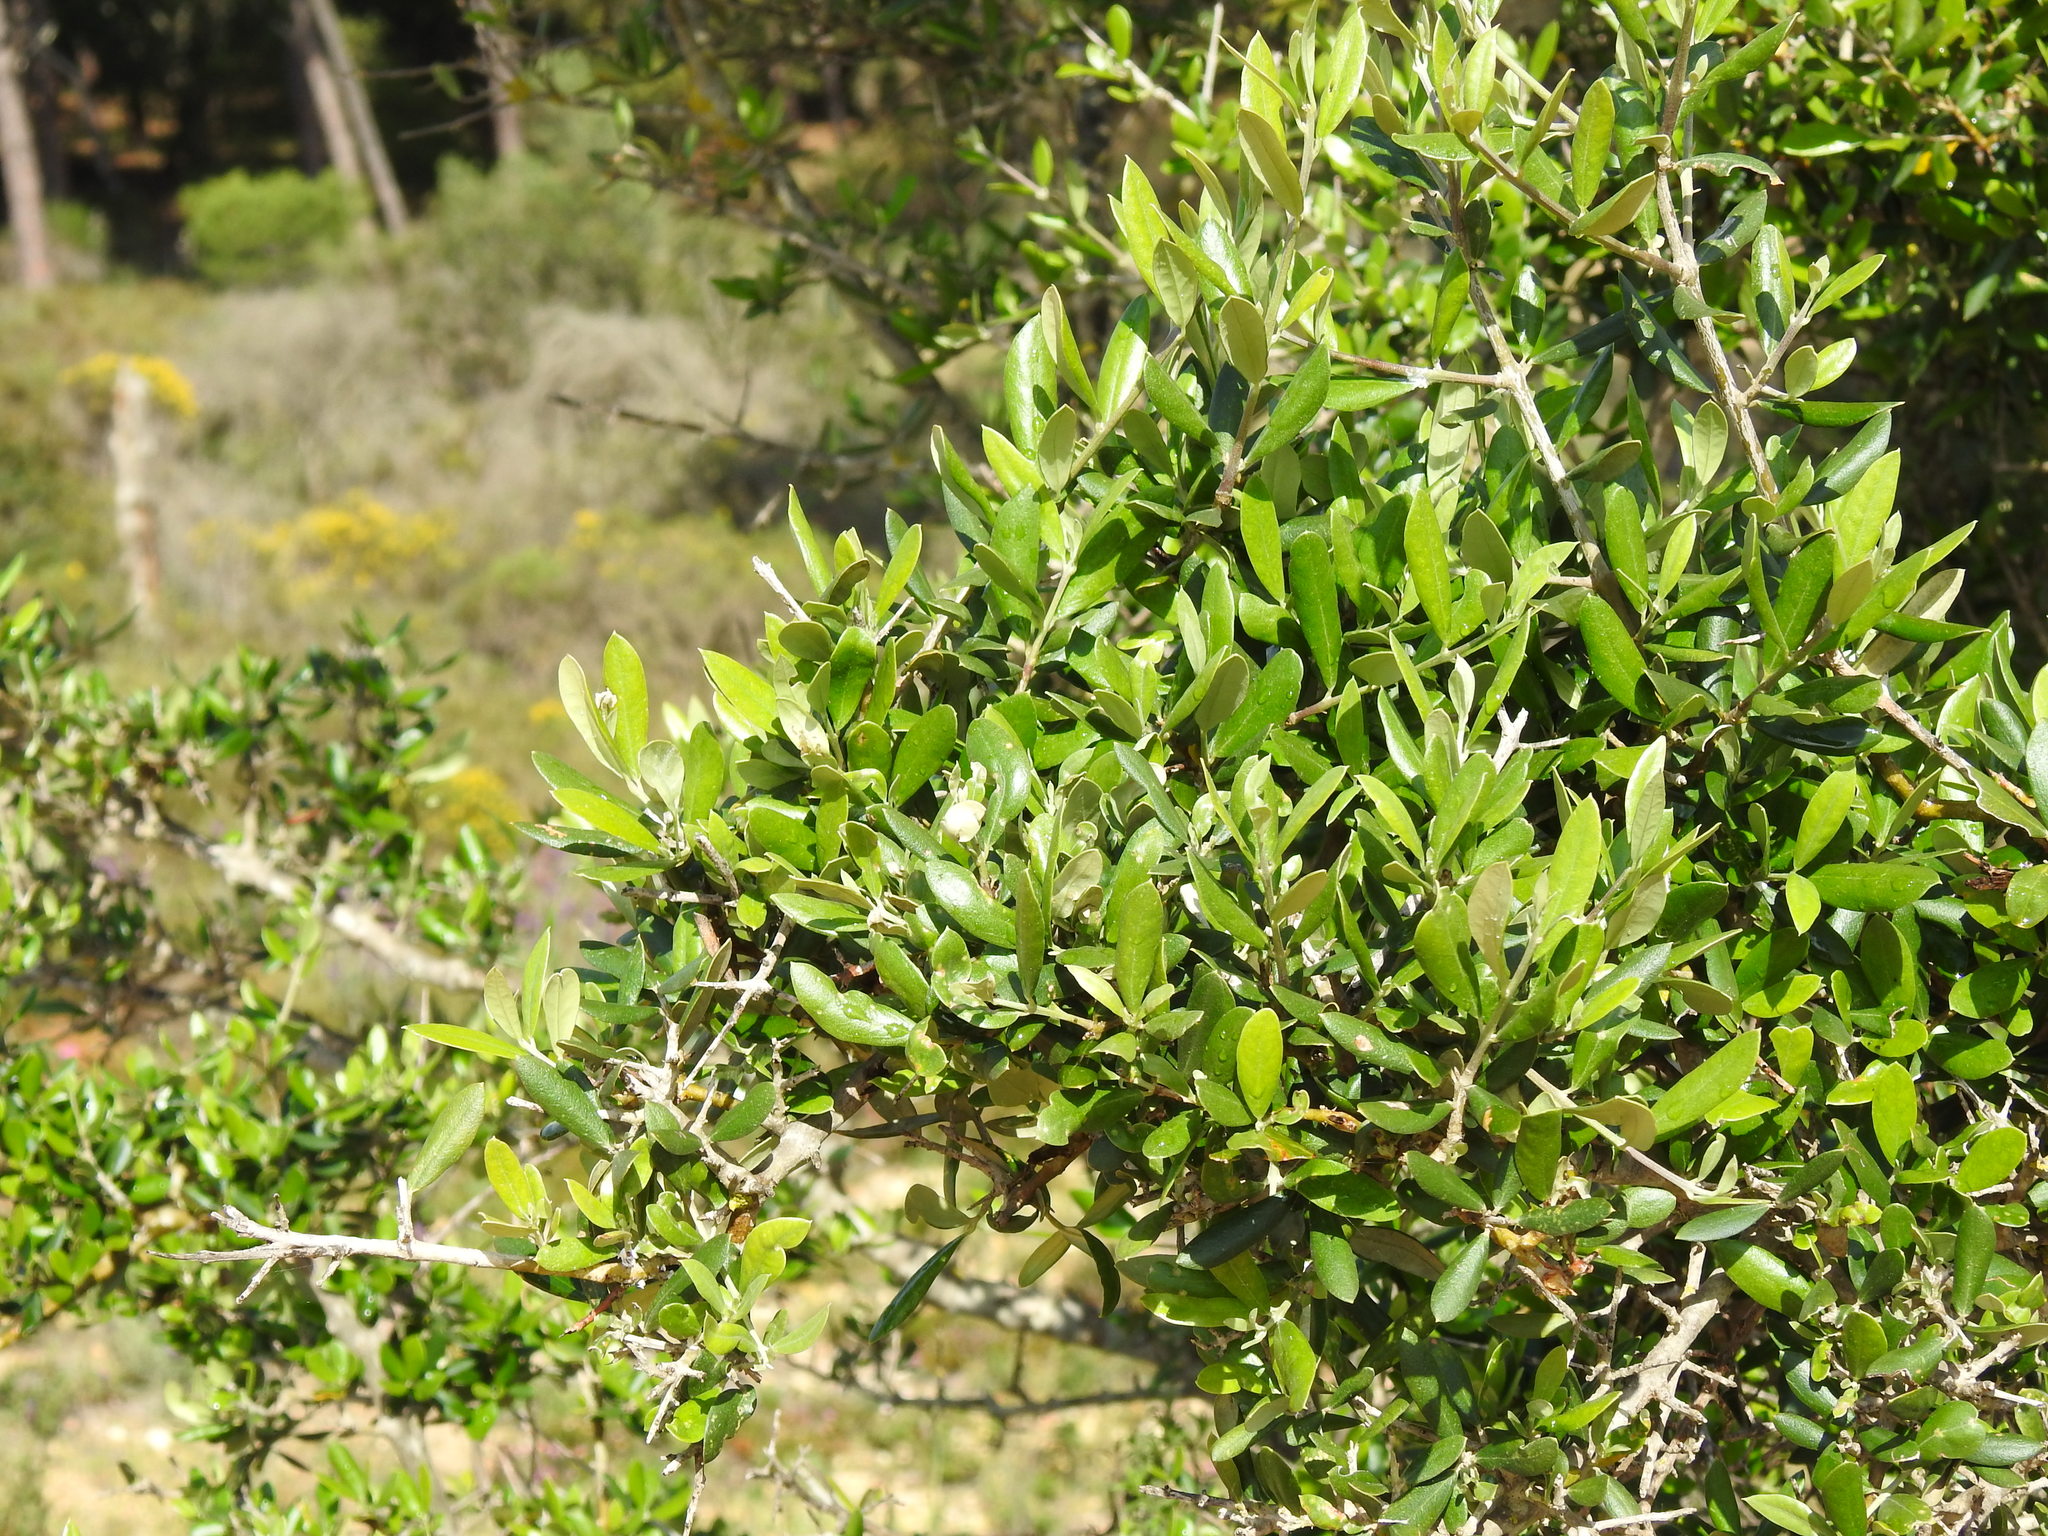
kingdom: Plantae
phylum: Tracheophyta
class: Magnoliopsida
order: Lamiales
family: Oleaceae
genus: Olea
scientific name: Olea europaea
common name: Olive
